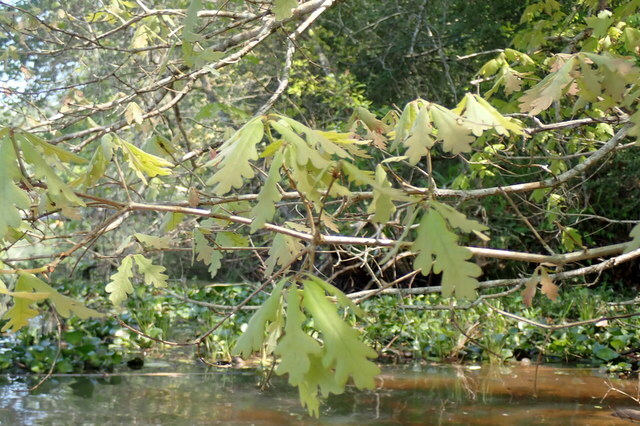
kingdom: Plantae
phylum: Tracheophyta
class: Magnoliopsida
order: Fagales
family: Fagaceae
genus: Quercus
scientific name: Quercus alba
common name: White oak
